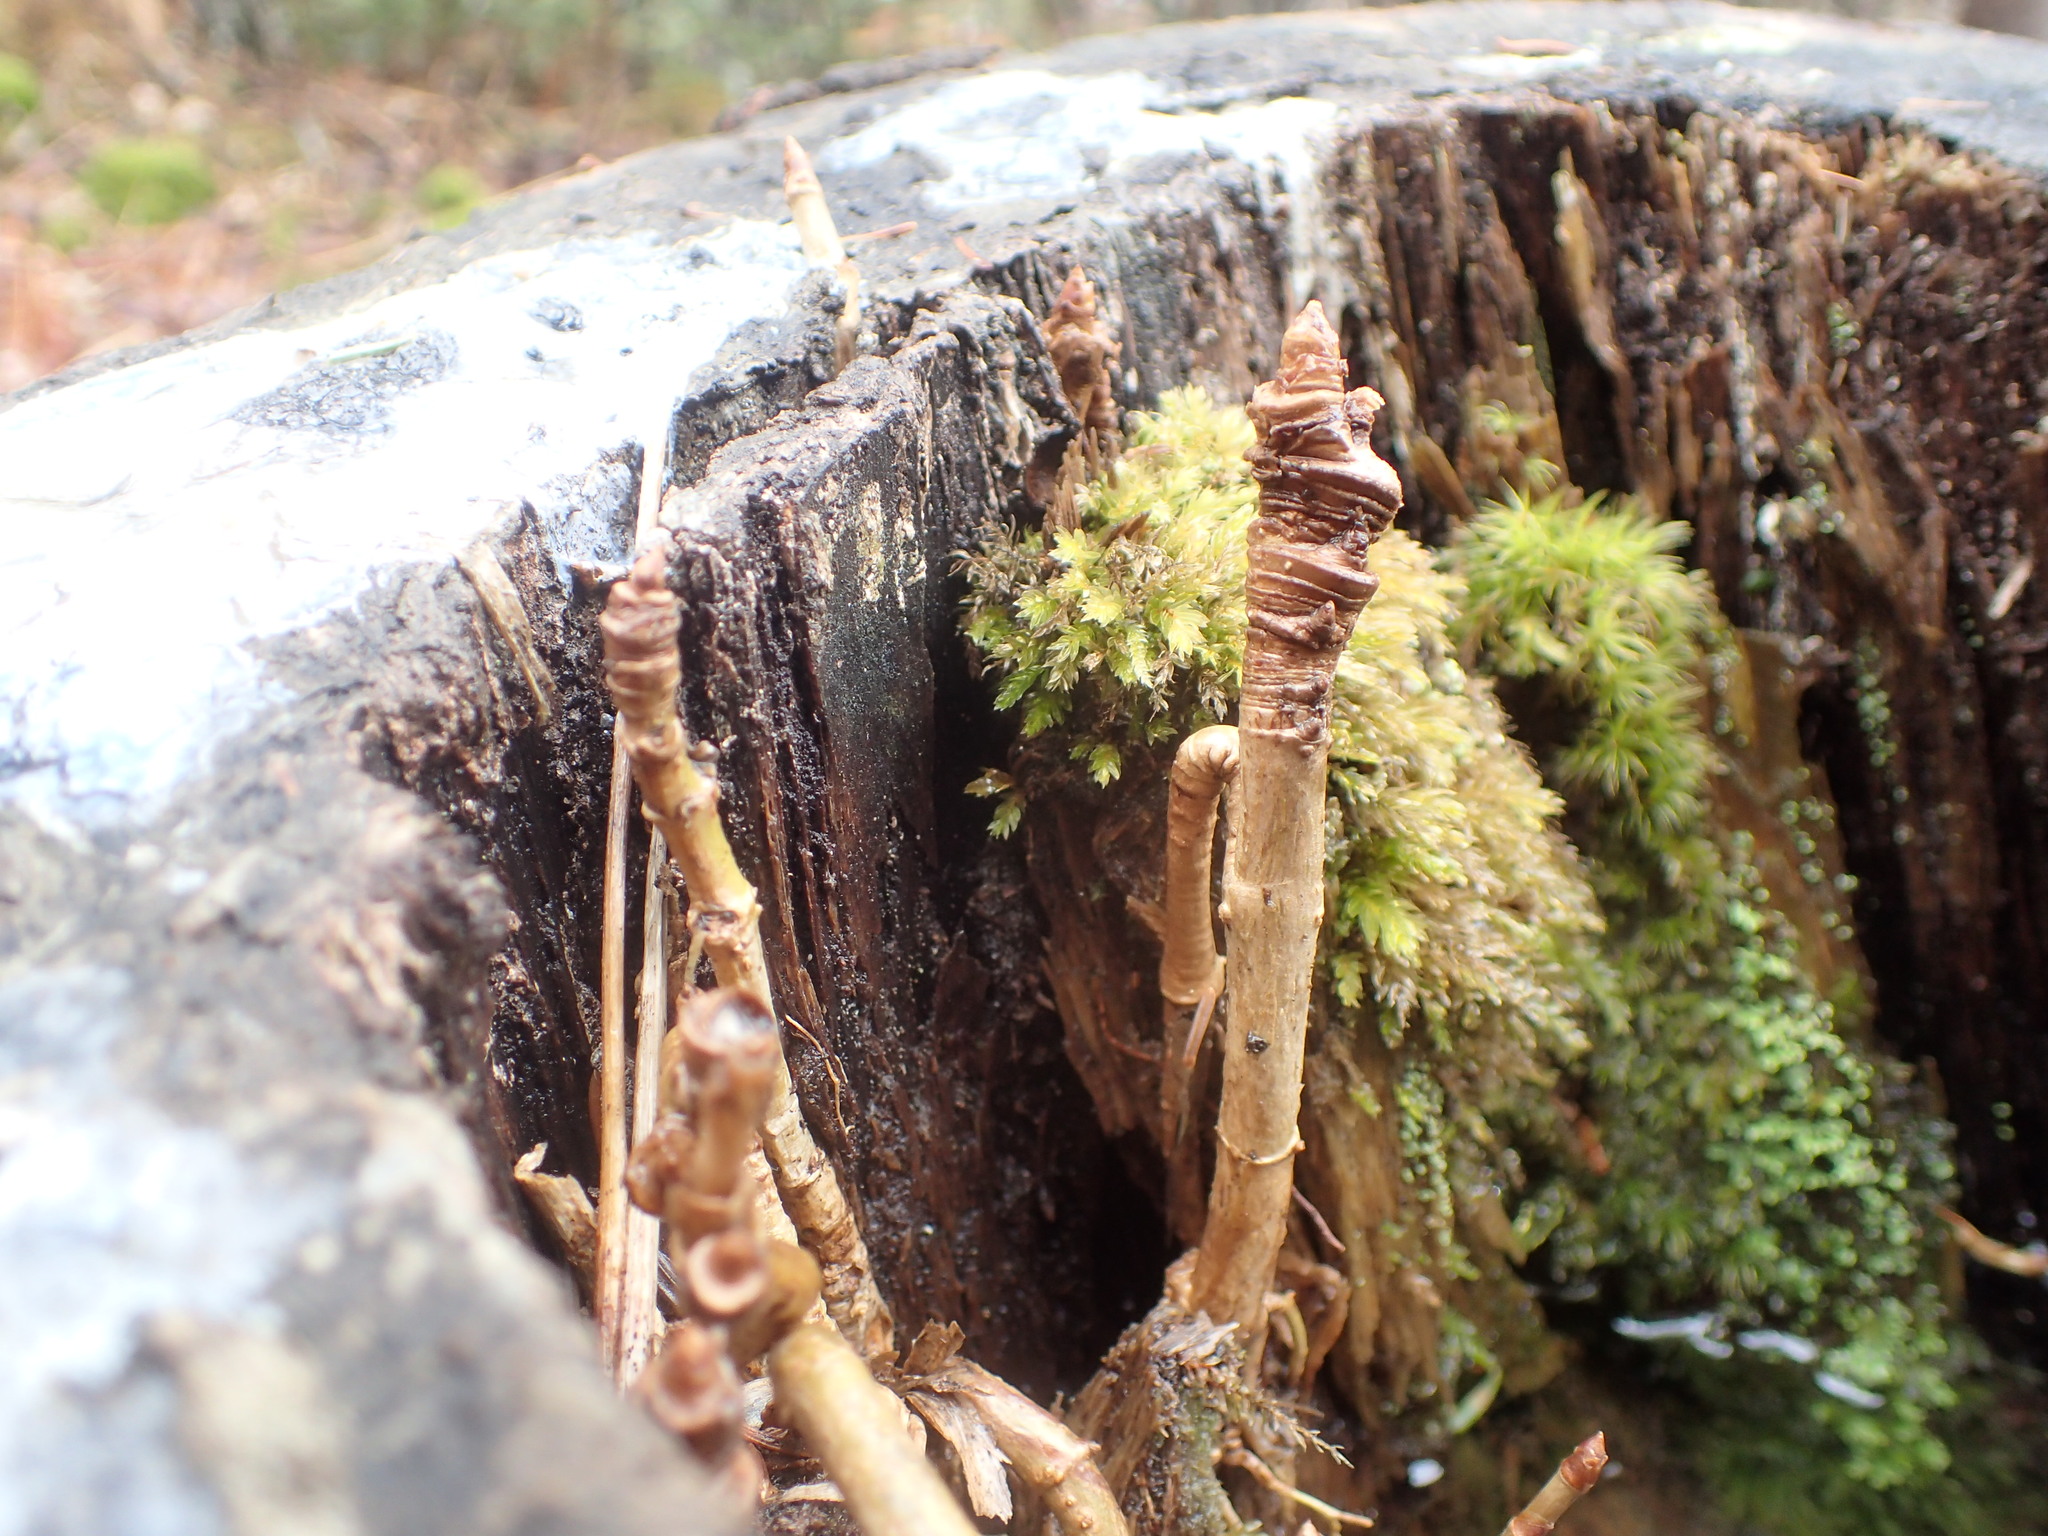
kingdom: Plantae
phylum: Tracheophyta
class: Magnoliopsida
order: Apiales
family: Araliaceae
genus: Aralia
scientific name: Aralia nudicaulis
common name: Wild sarsaparilla
